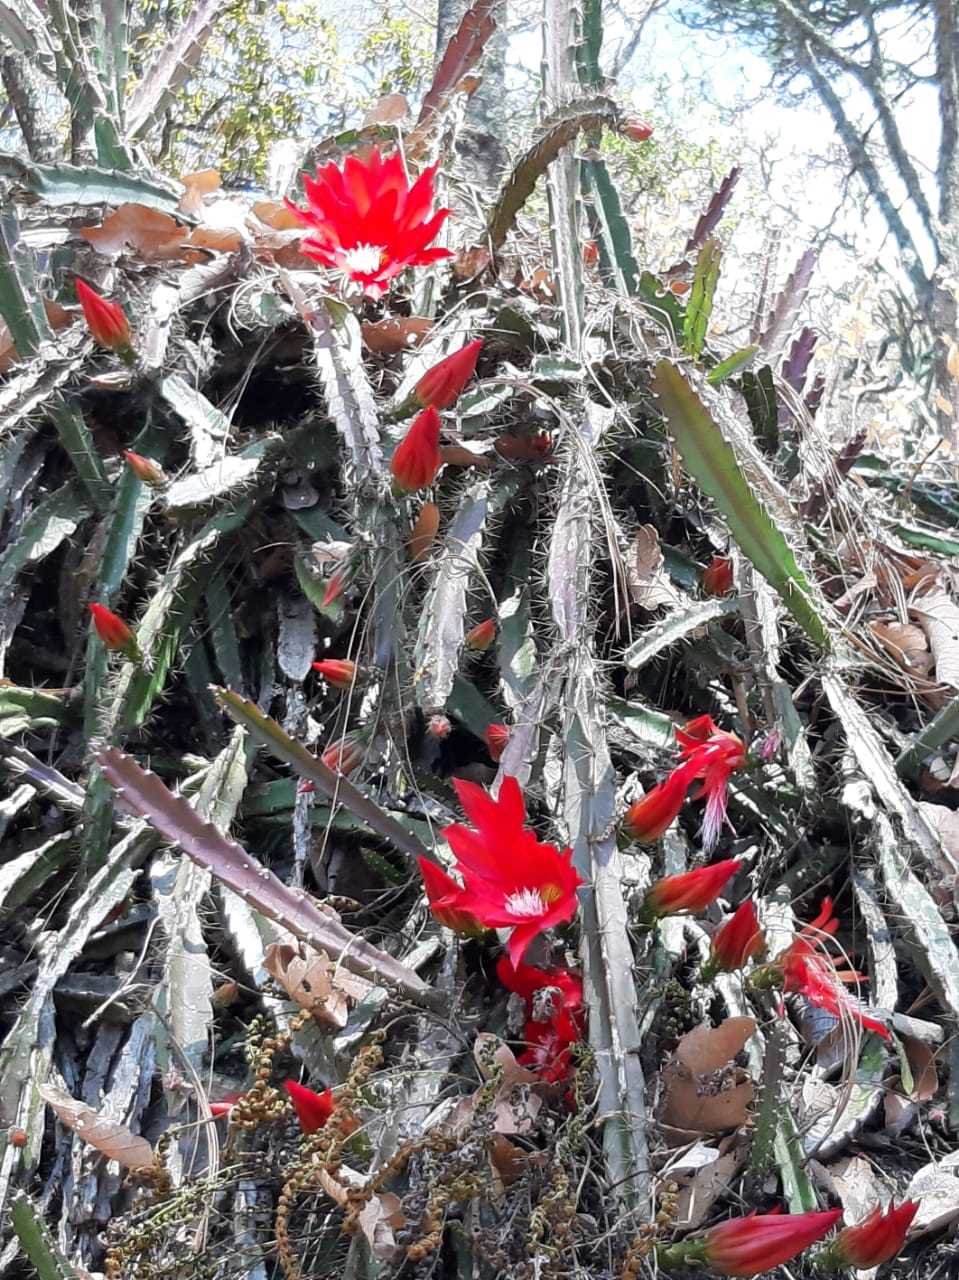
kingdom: Plantae
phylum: Tracheophyta
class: Magnoliopsida
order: Caryophyllales
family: Cactaceae
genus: Disocactus
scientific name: Disocactus speciosus
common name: Sun cereus
